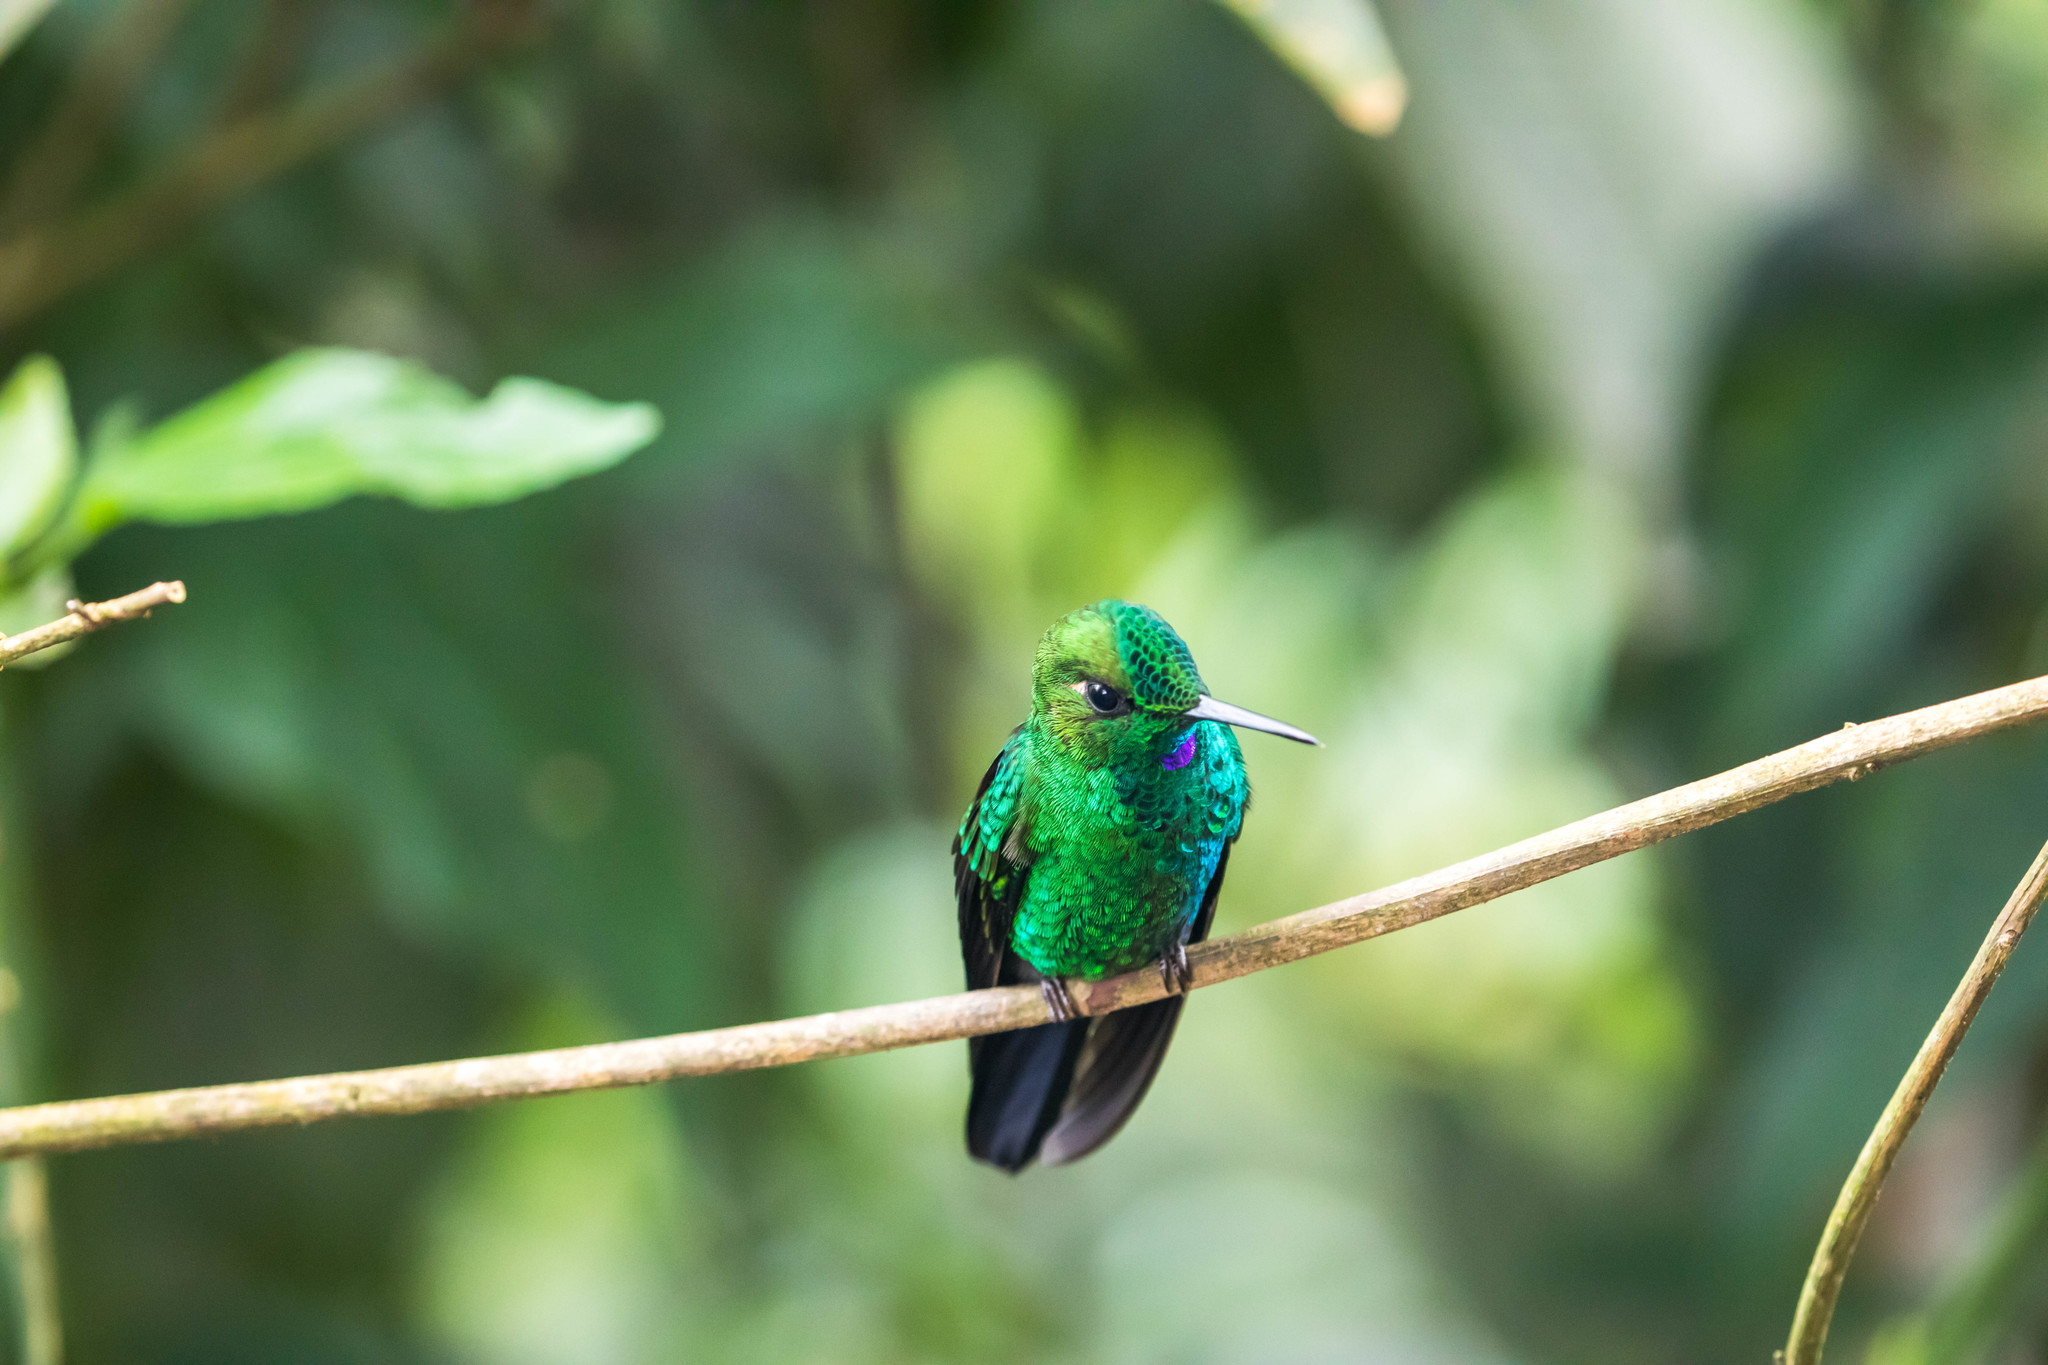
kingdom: Animalia
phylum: Chordata
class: Aves
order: Apodiformes
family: Trochilidae
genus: Heliodoxa
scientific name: Heliodoxa jacula
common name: Green-crowned brilliant
